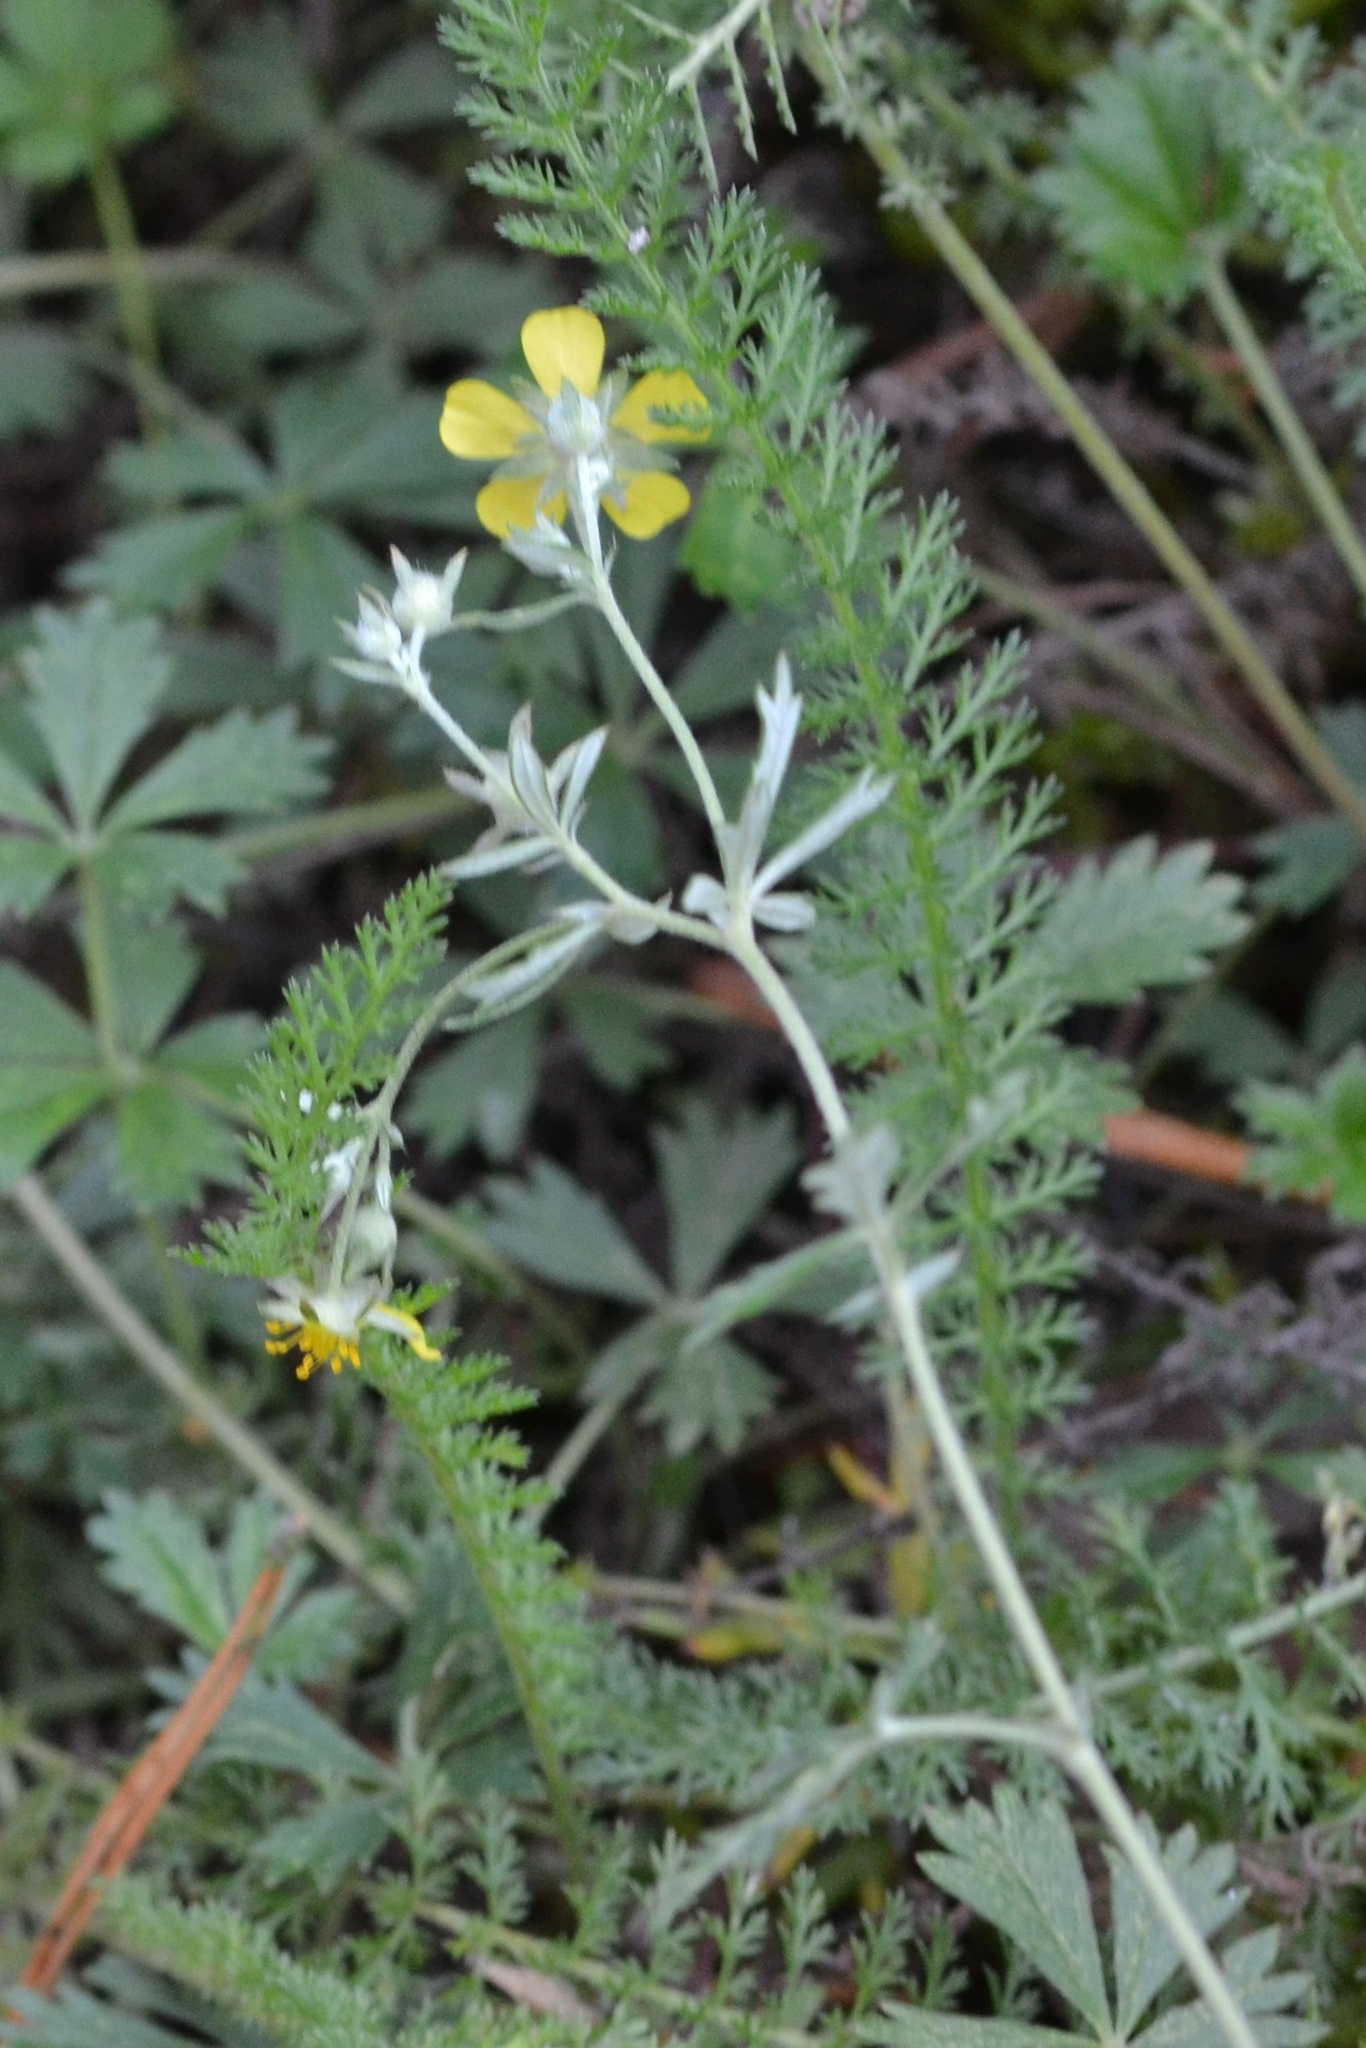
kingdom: Plantae
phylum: Tracheophyta
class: Magnoliopsida
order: Rosales
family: Rosaceae
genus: Potentilla
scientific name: Potentilla argentea
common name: Hoary cinquefoil
